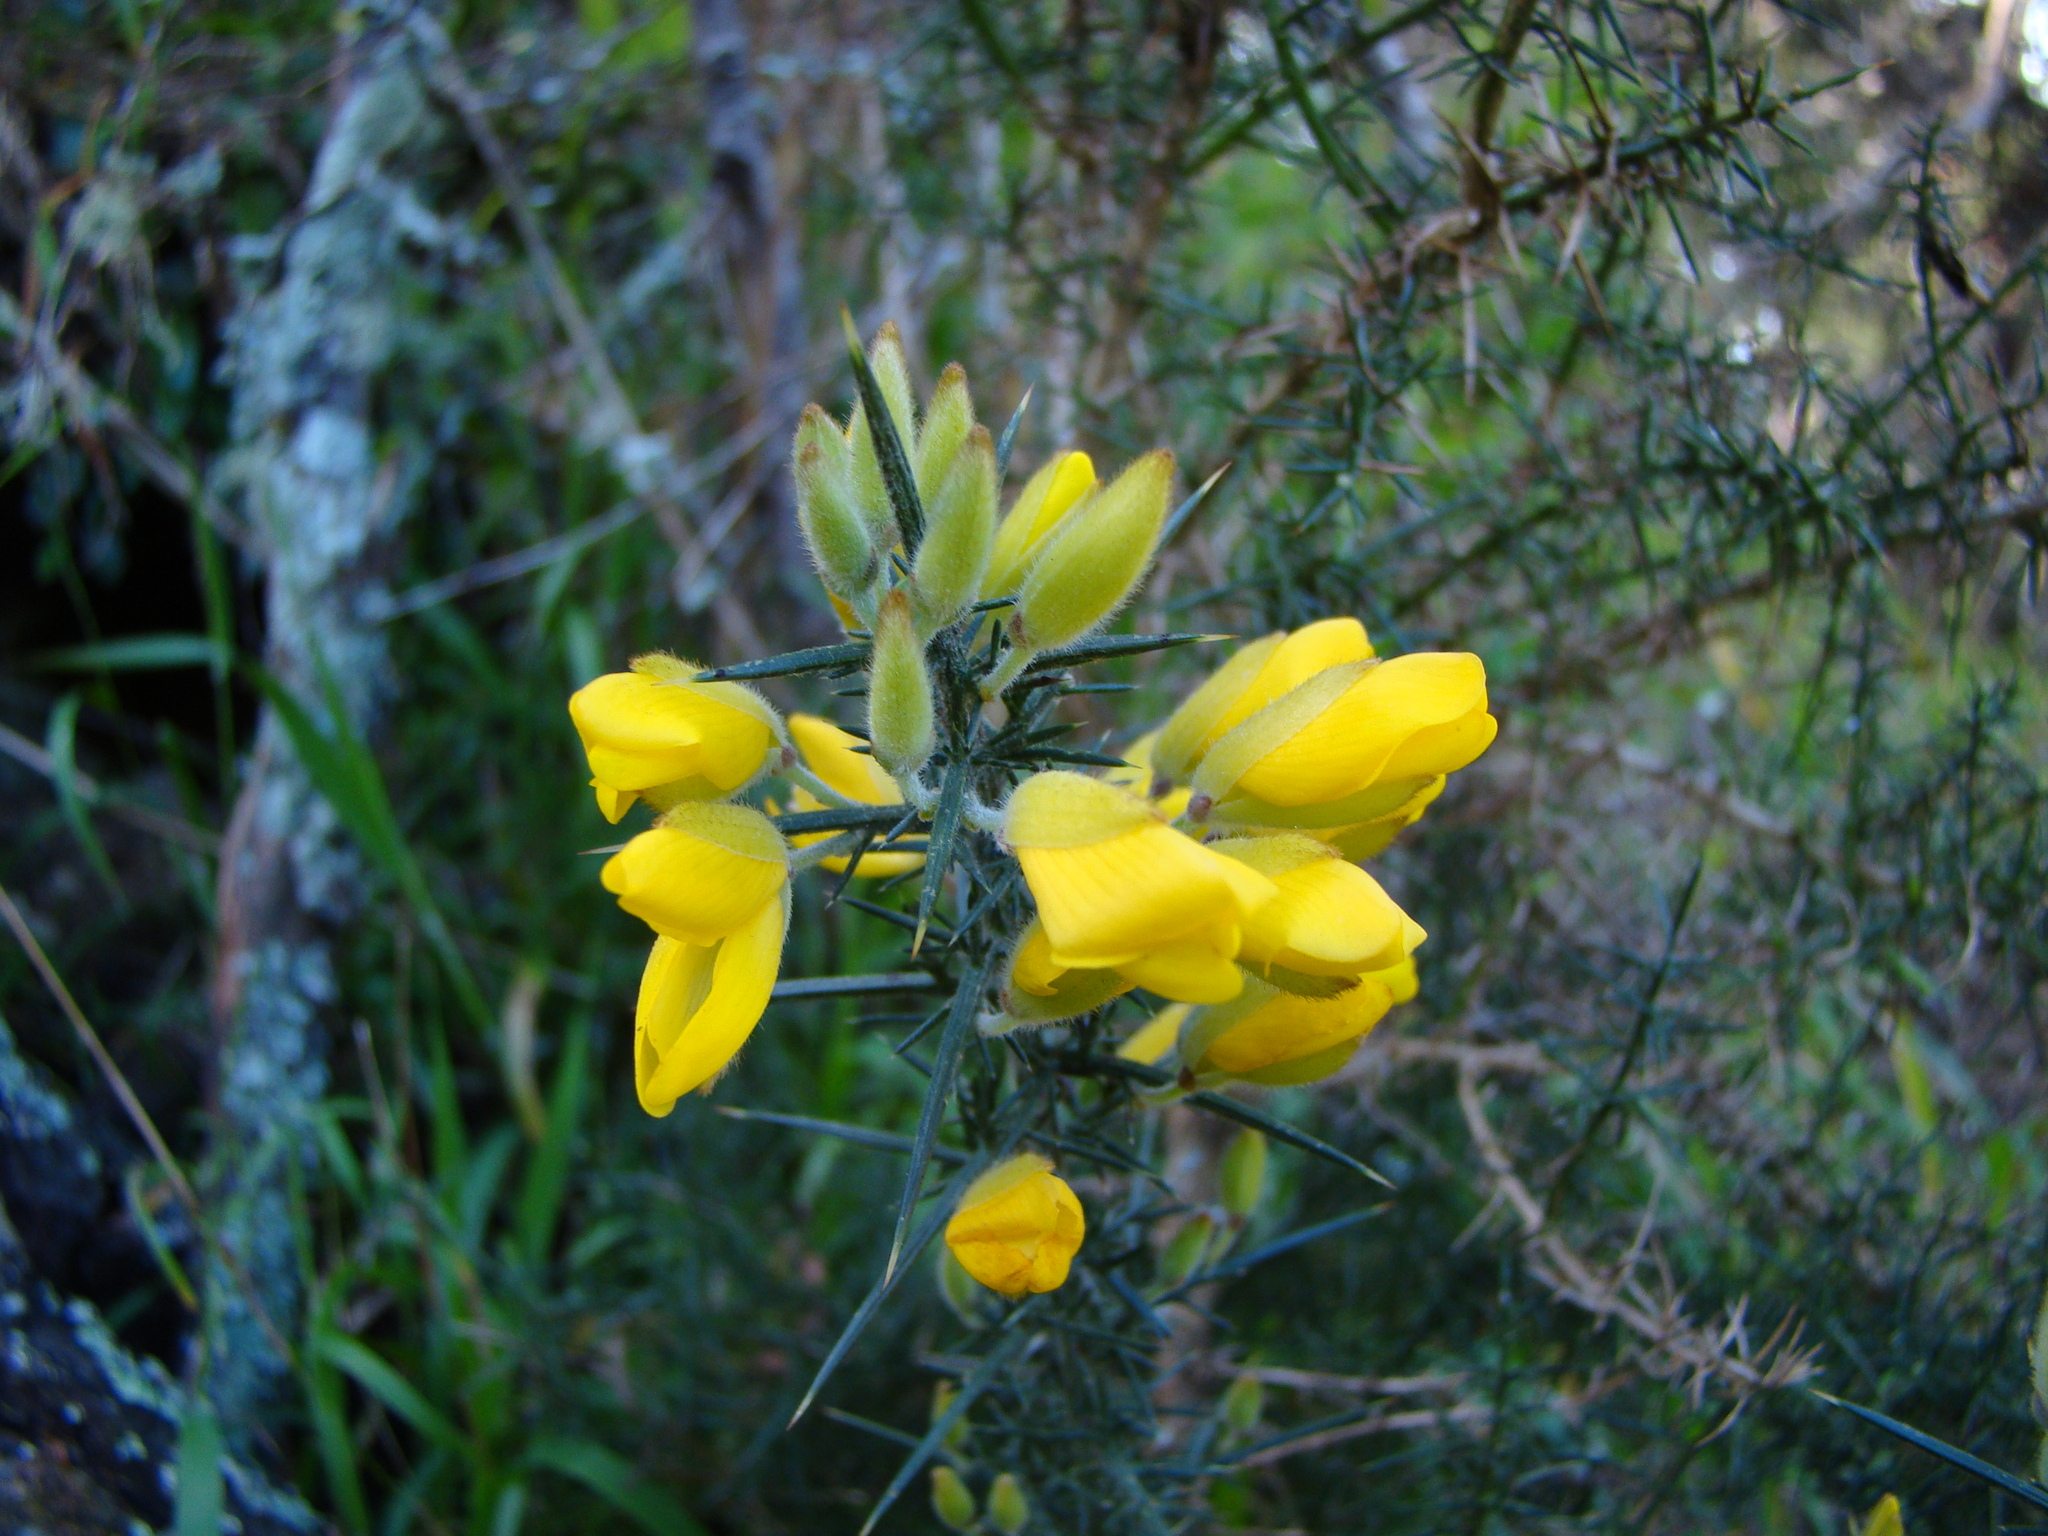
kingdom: Plantae
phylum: Tracheophyta
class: Magnoliopsida
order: Fabales
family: Fabaceae
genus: Ulex
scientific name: Ulex europaeus
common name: Common gorse
